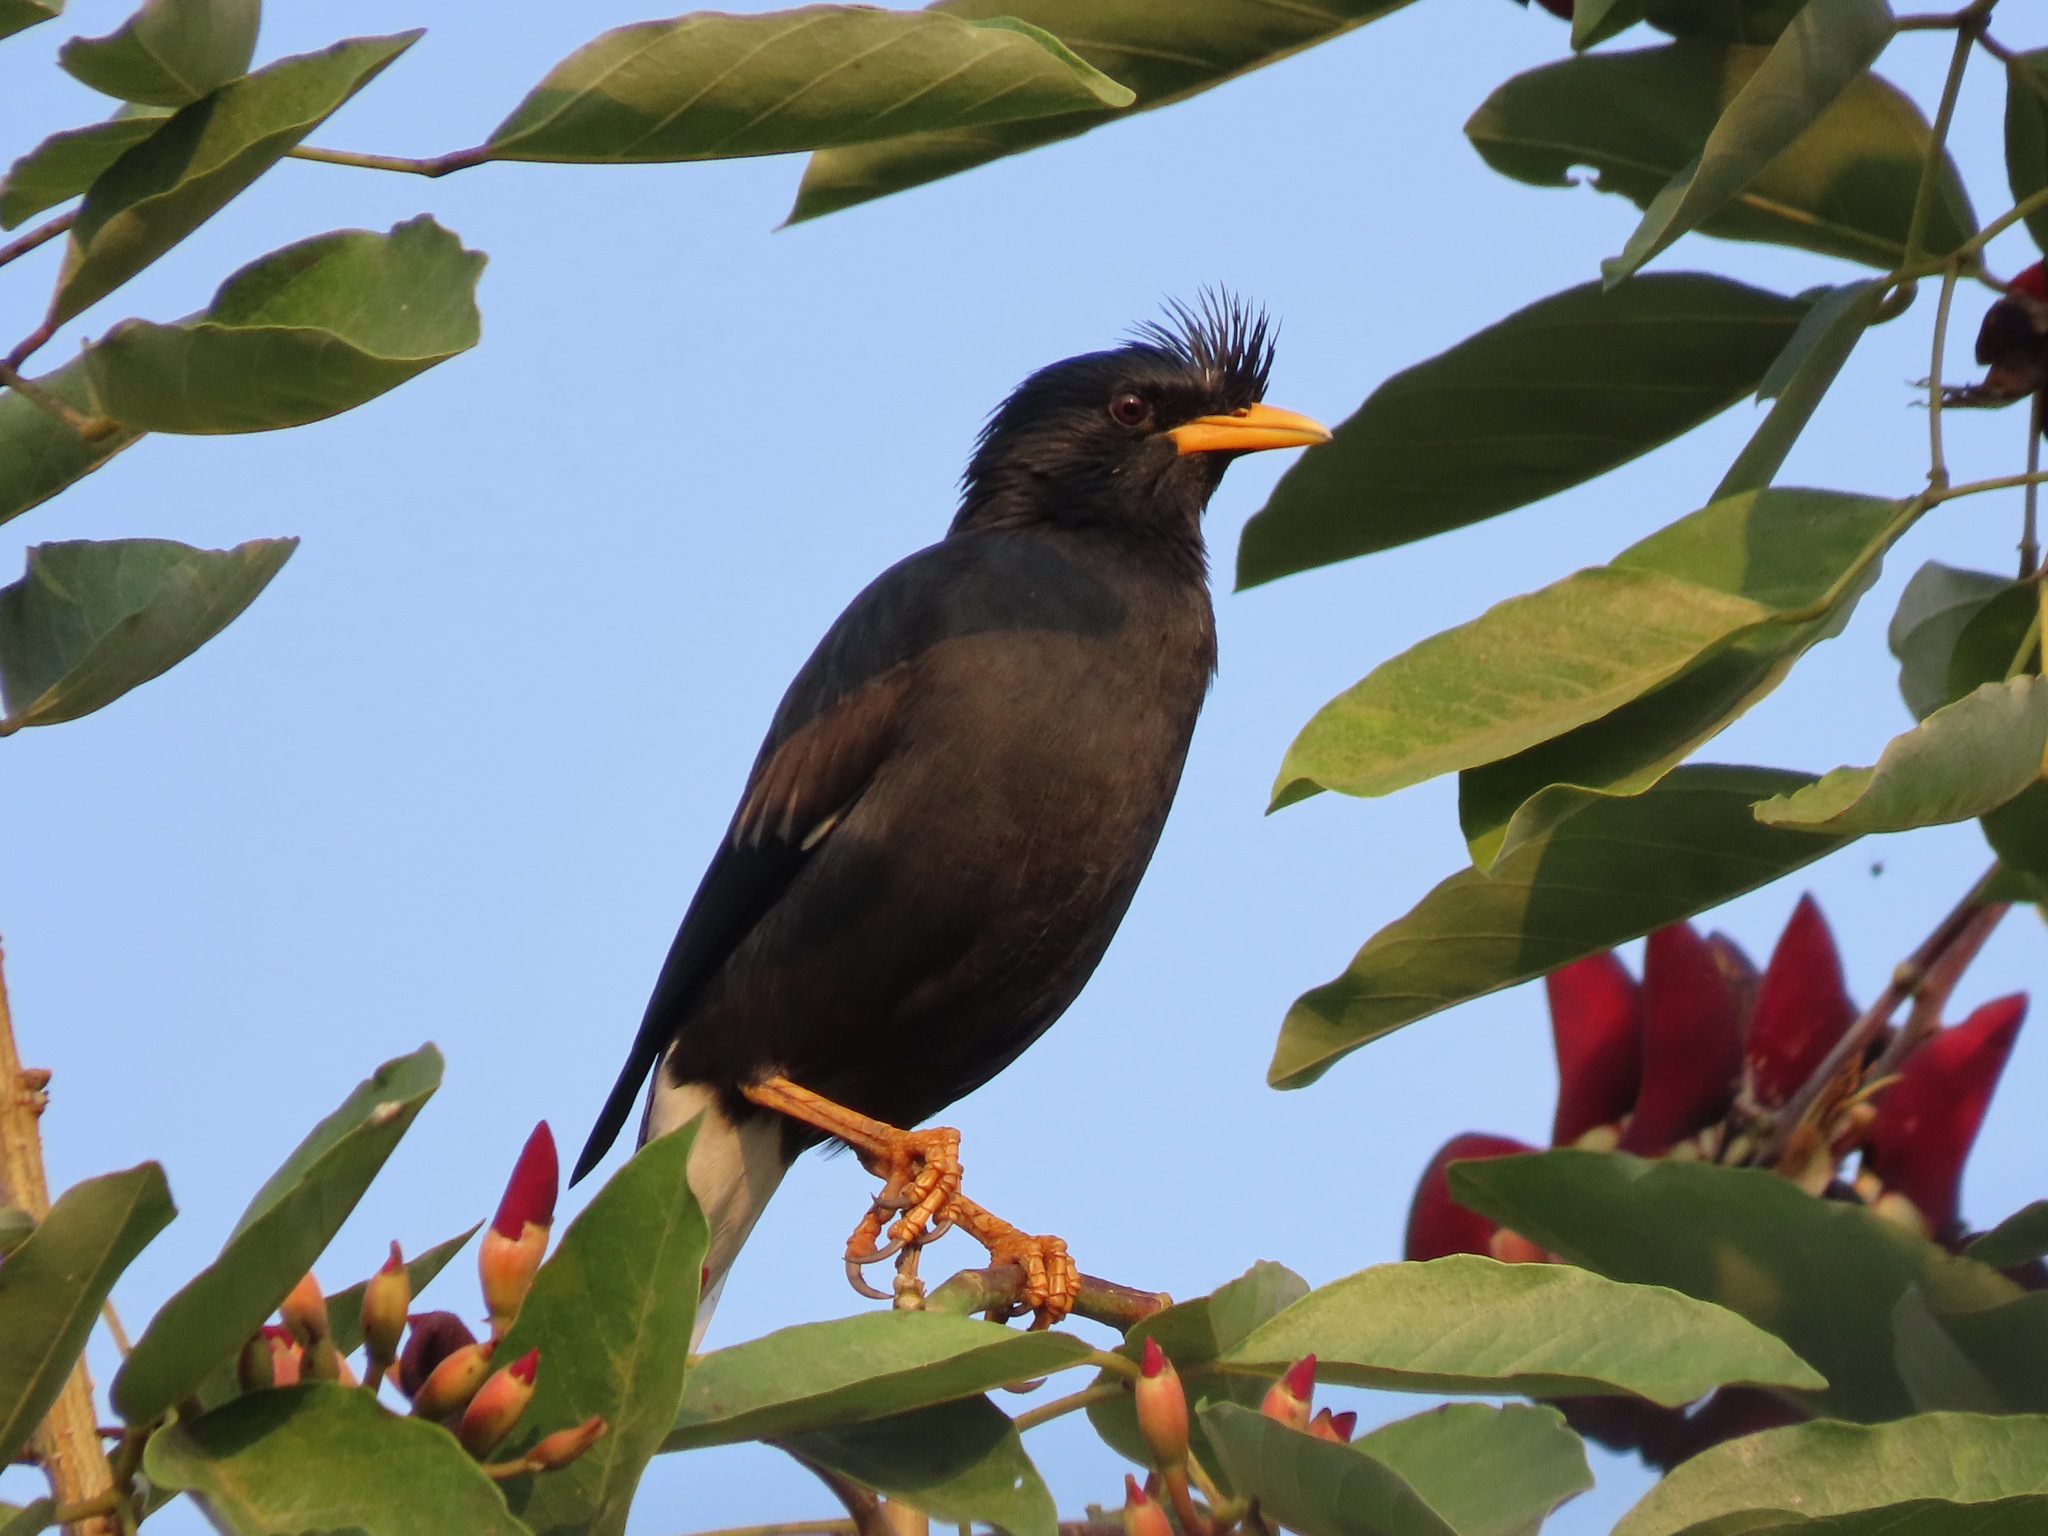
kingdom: Animalia
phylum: Chordata
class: Aves
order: Passeriformes
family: Sturnidae
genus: Acridotheres
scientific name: Acridotheres grandis
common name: Great myna
